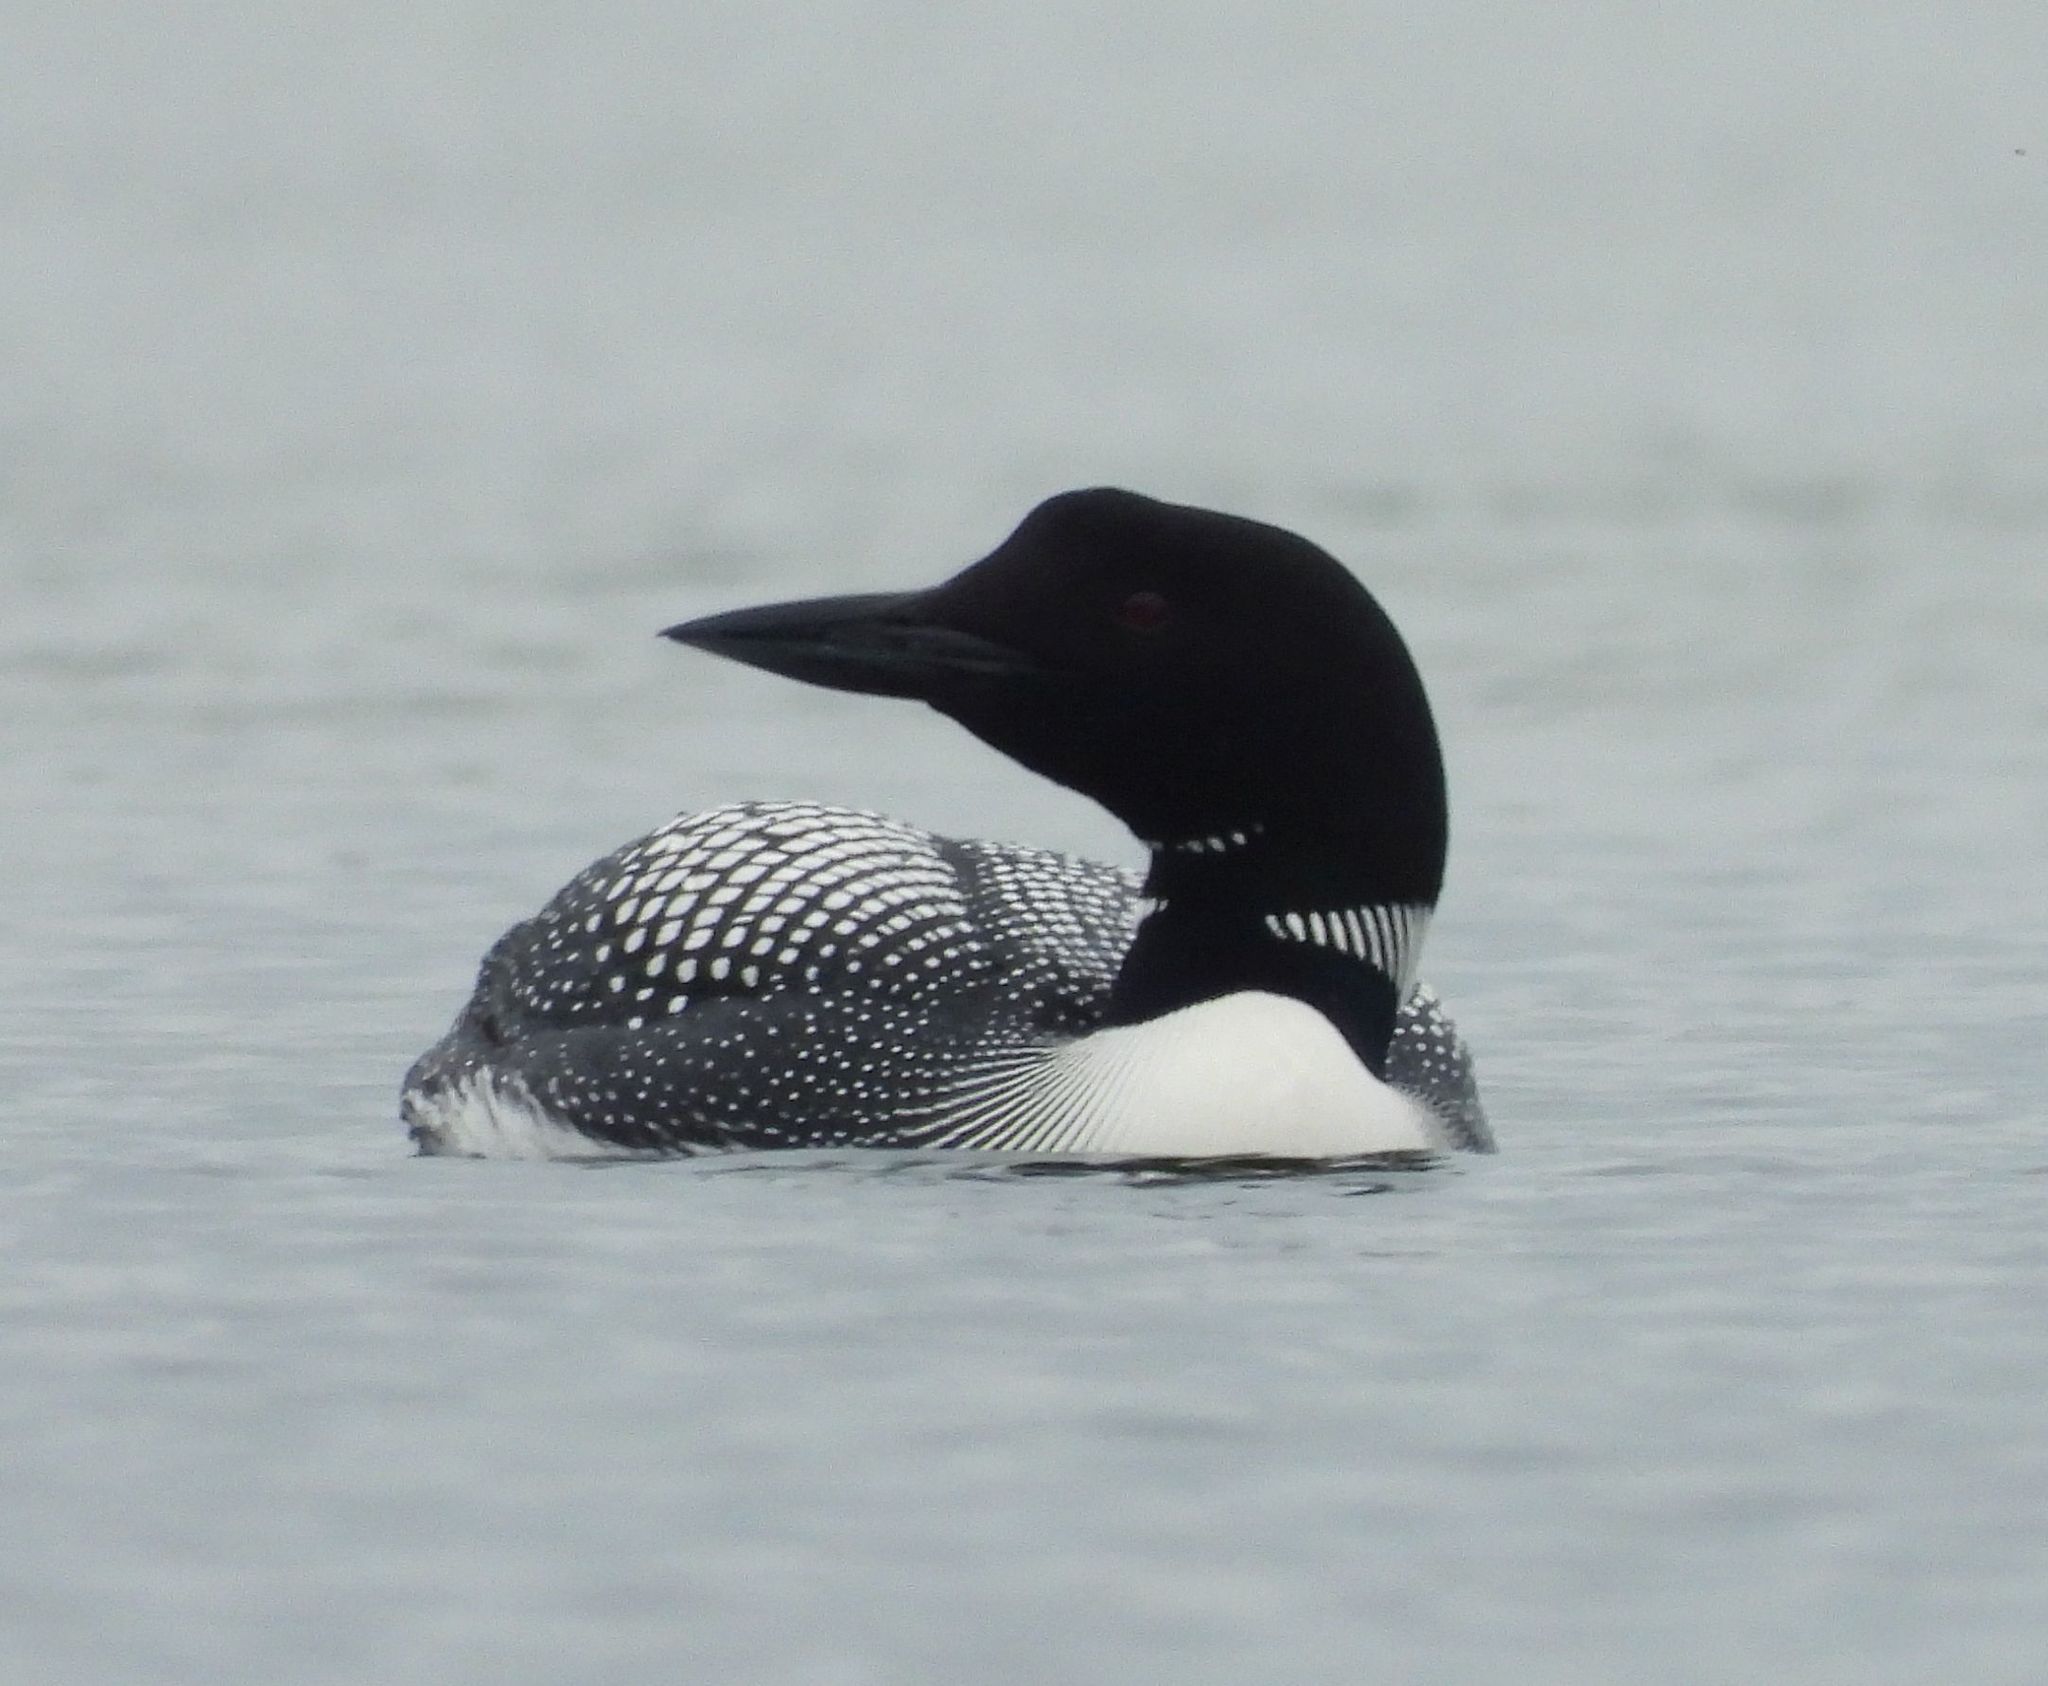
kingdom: Animalia
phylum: Chordata
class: Aves
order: Gaviiformes
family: Gaviidae
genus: Gavia
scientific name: Gavia immer
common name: Common loon
